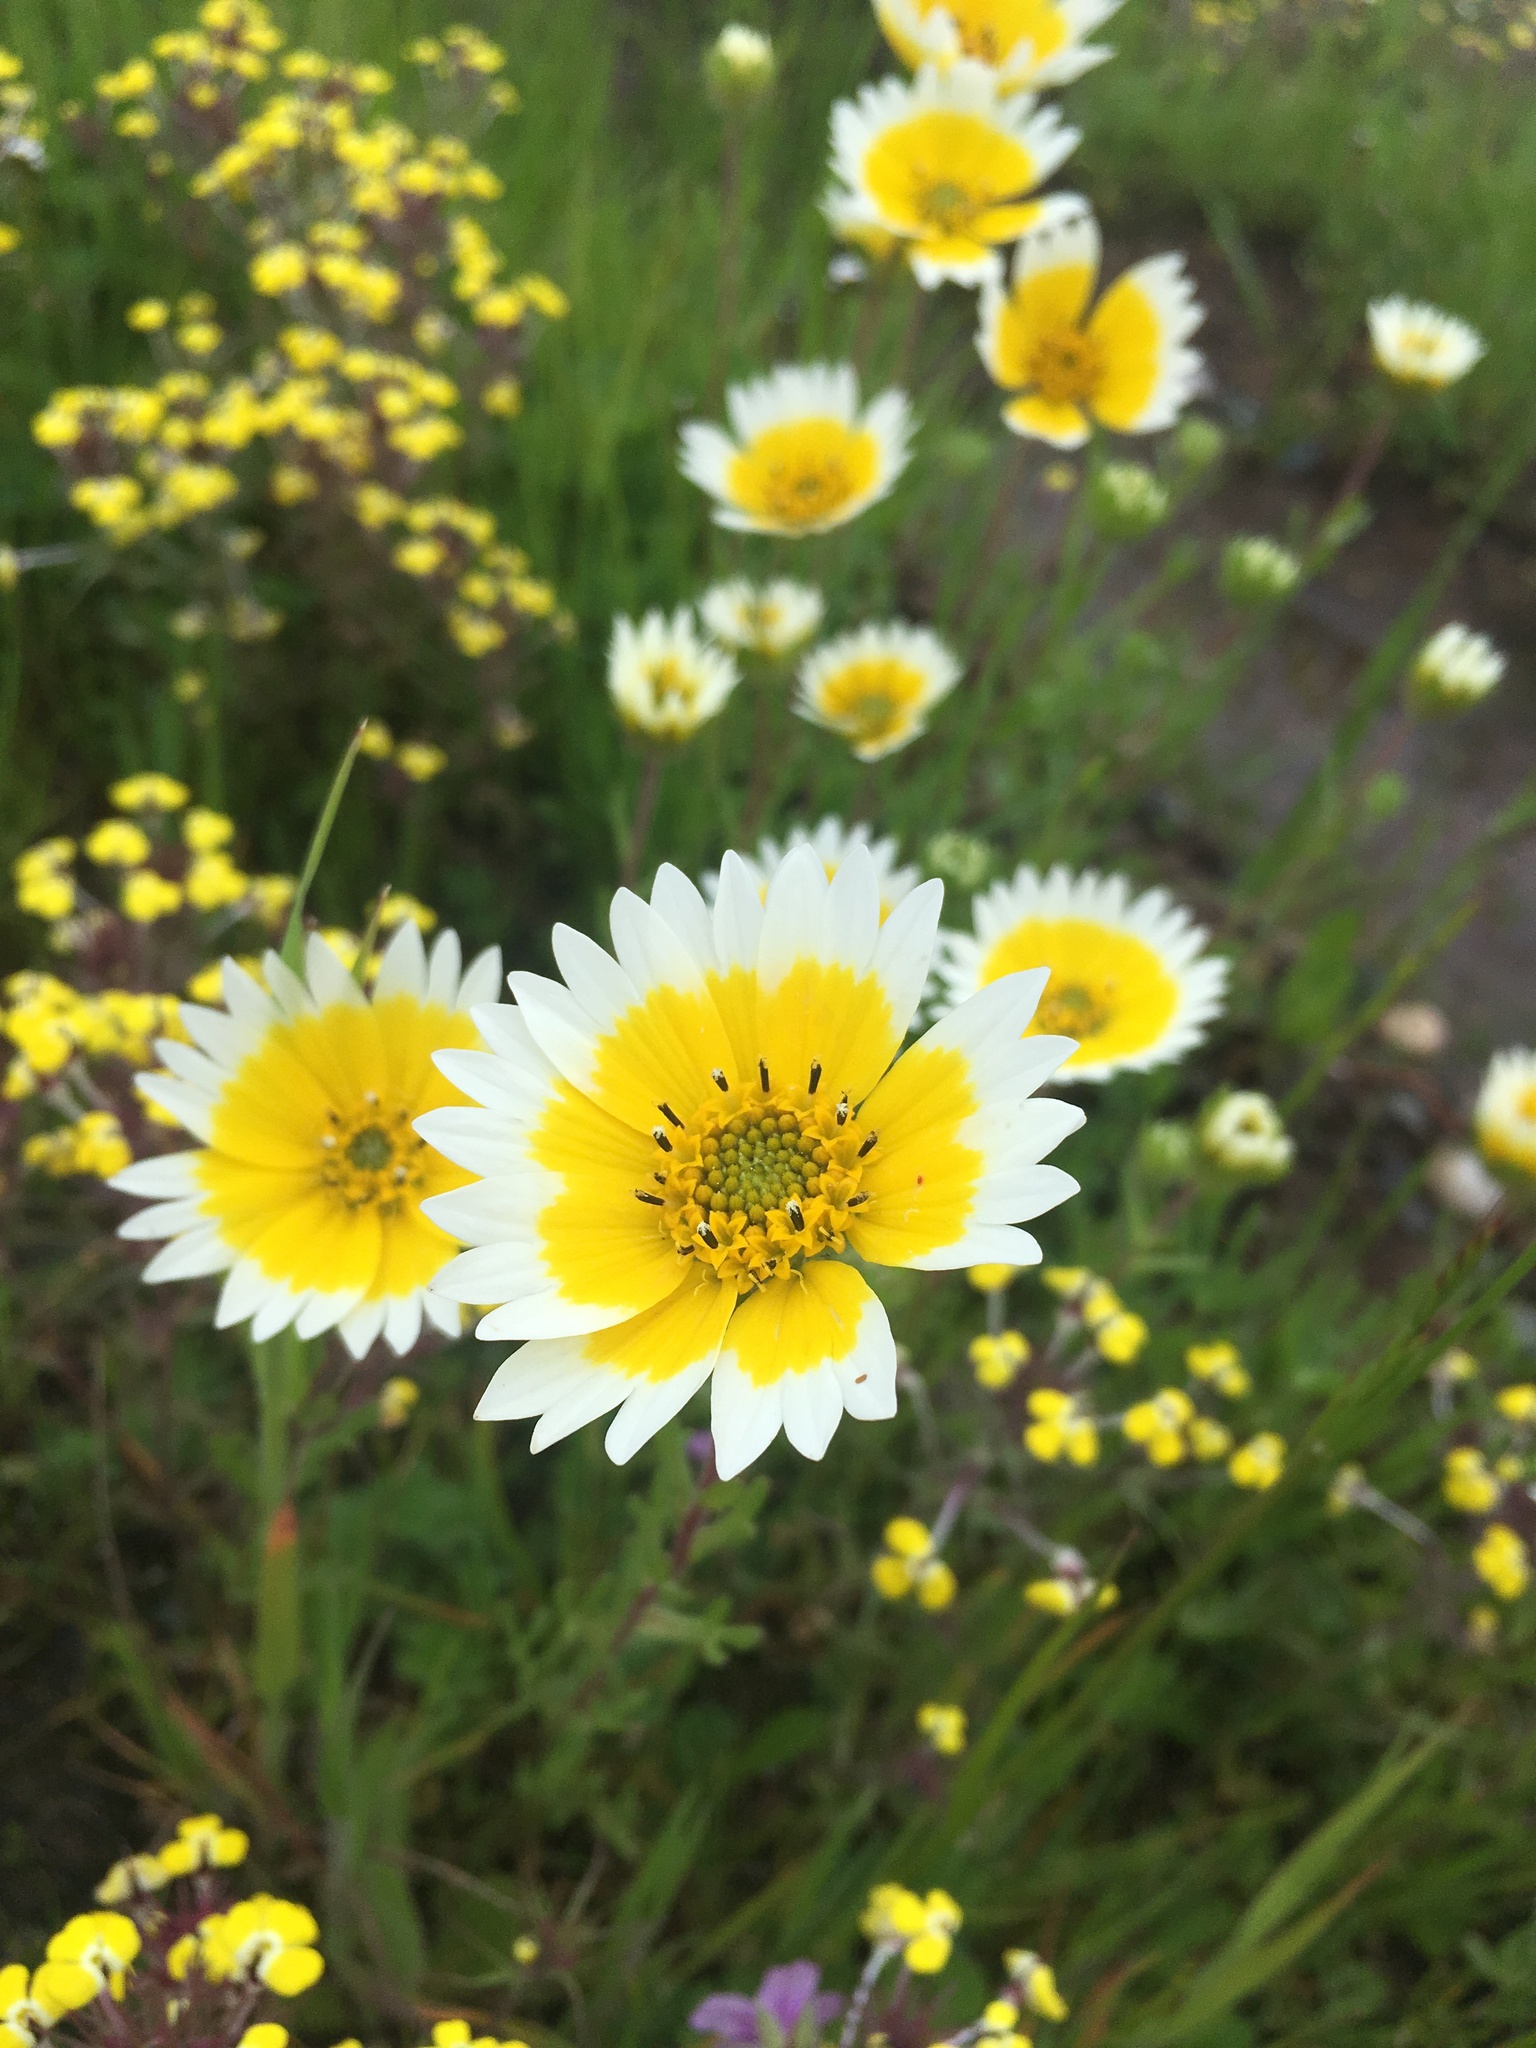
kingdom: Plantae
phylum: Tracheophyta
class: Magnoliopsida
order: Asterales
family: Asteraceae
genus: Layia
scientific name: Layia fremontii
